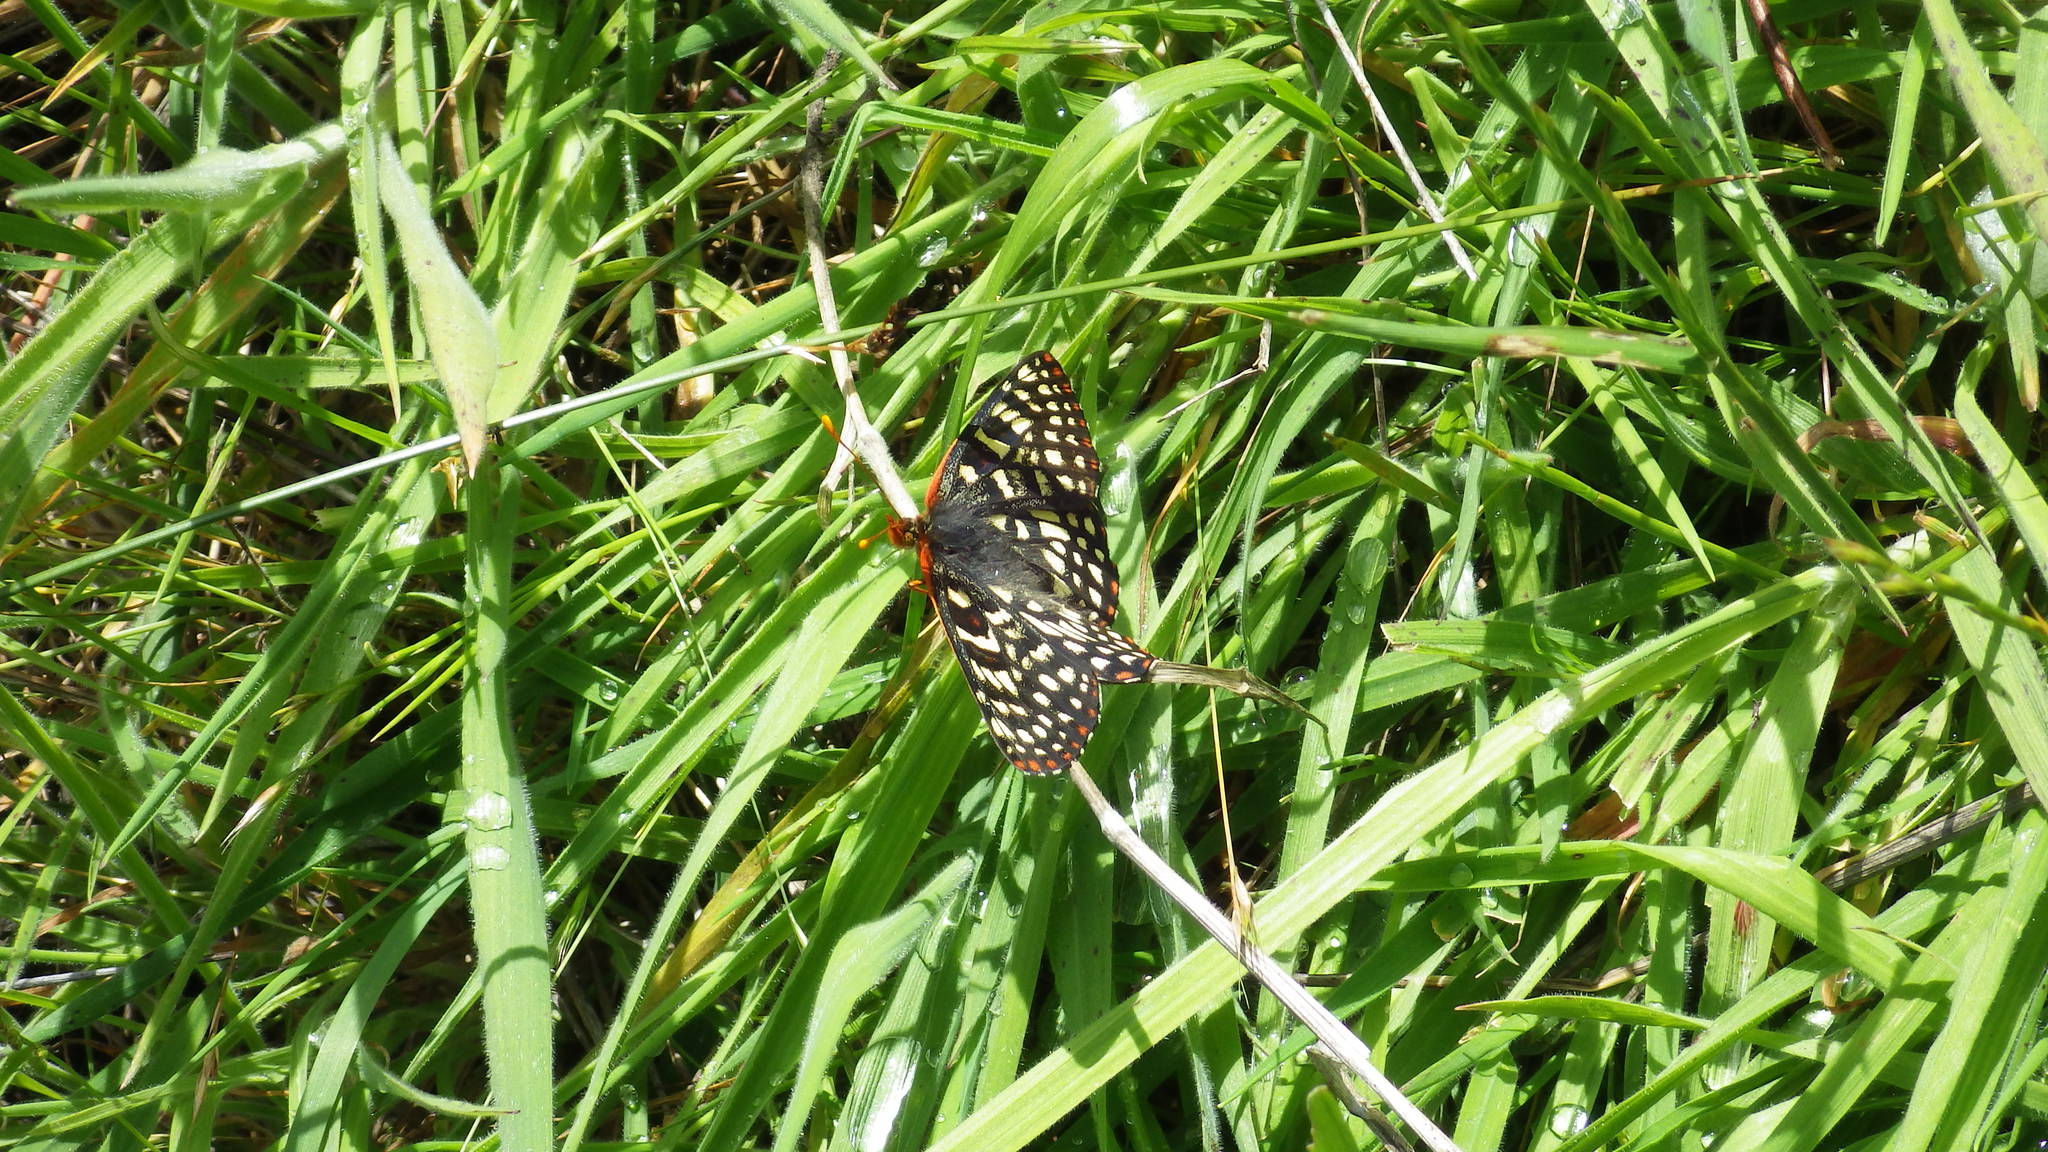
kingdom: Animalia
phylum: Arthropoda
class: Insecta
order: Lepidoptera
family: Nymphalidae
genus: Occidryas
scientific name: Occidryas chalcedona
